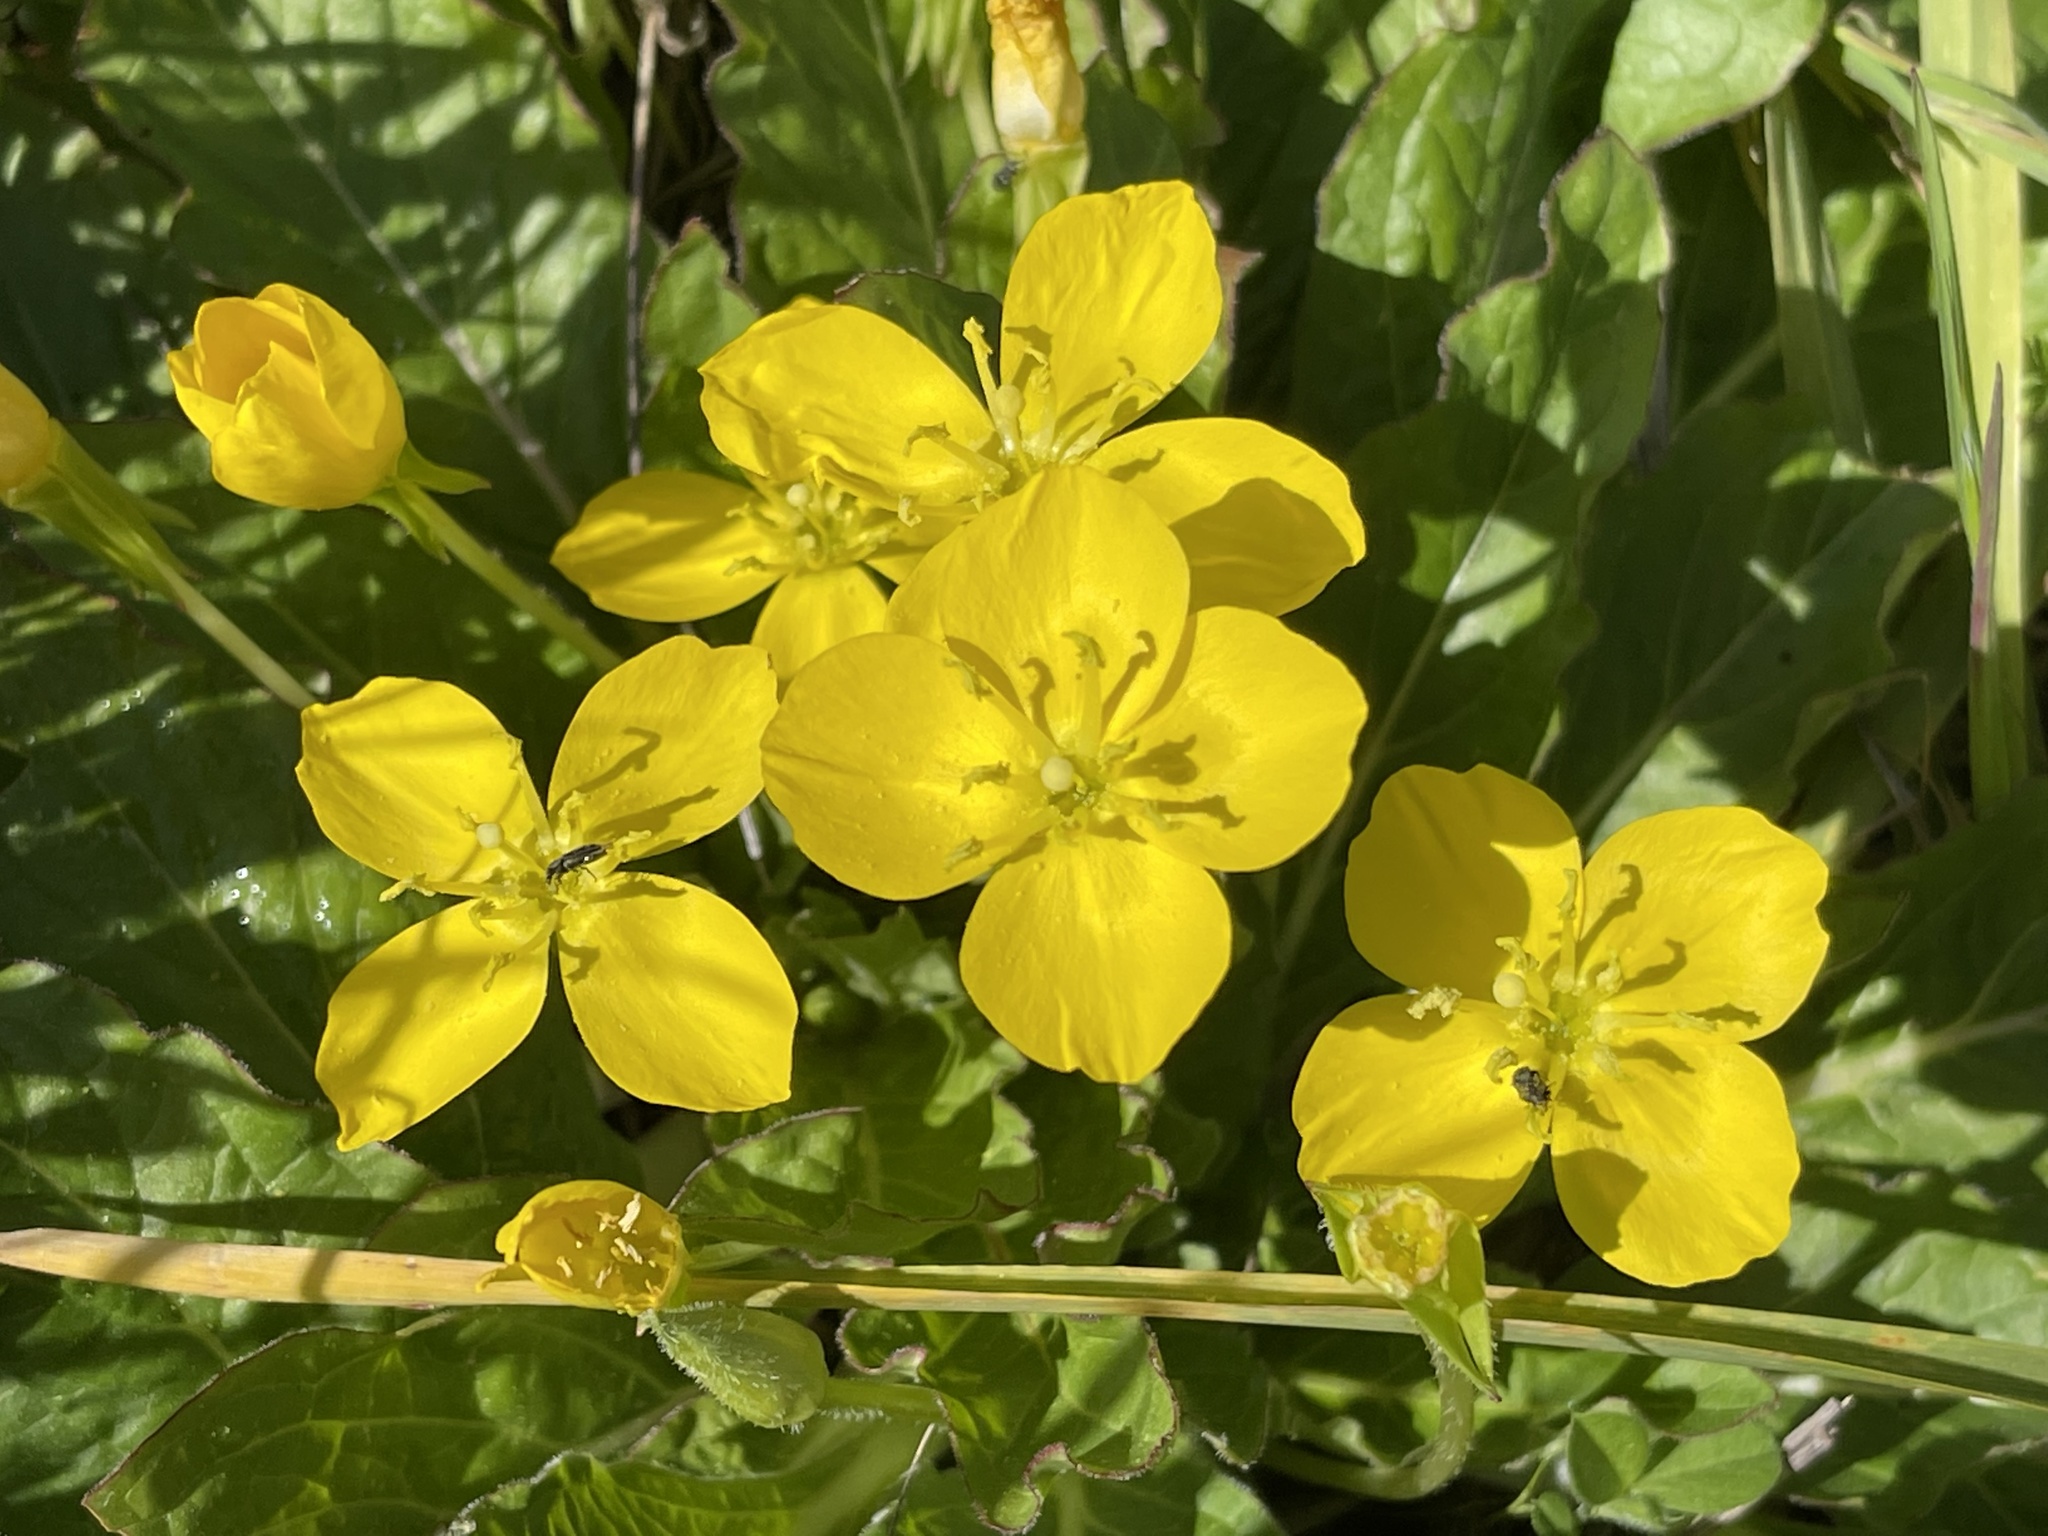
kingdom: Plantae
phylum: Tracheophyta
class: Magnoliopsida
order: Myrtales
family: Onagraceae
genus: Taraxia
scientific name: Taraxia ovata
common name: Goldeneggs
